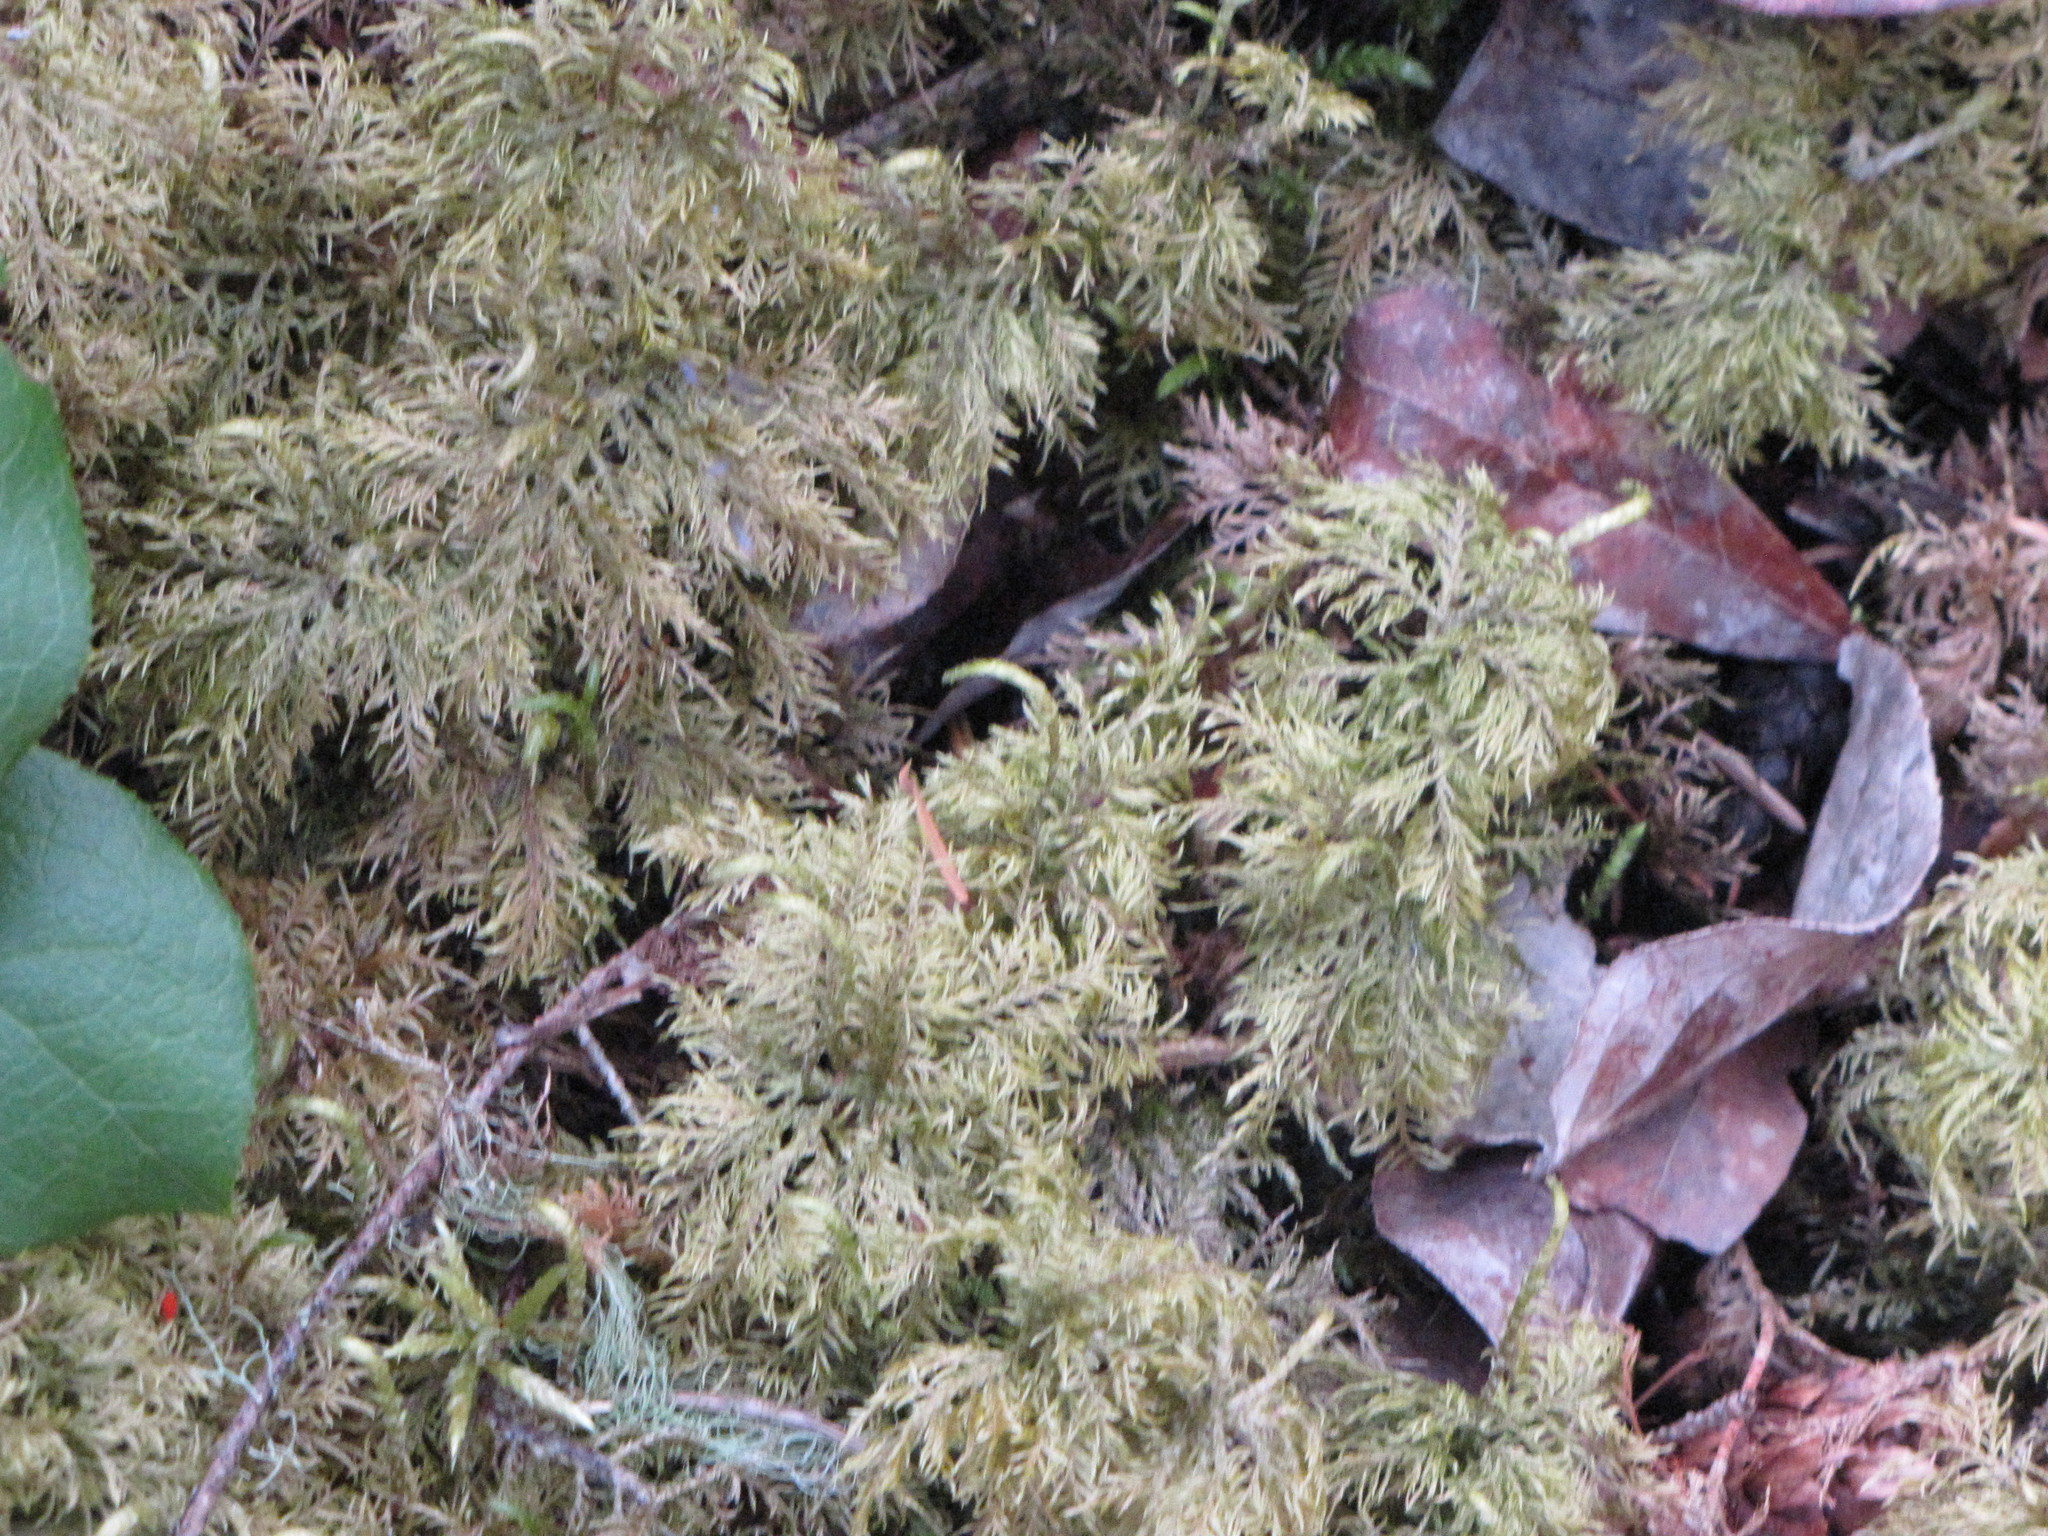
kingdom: Plantae
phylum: Bryophyta
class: Bryopsida
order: Hypnales
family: Hylocomiaceae
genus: Hylocomium
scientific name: Hylocomium splendens
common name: Stairstep moss
